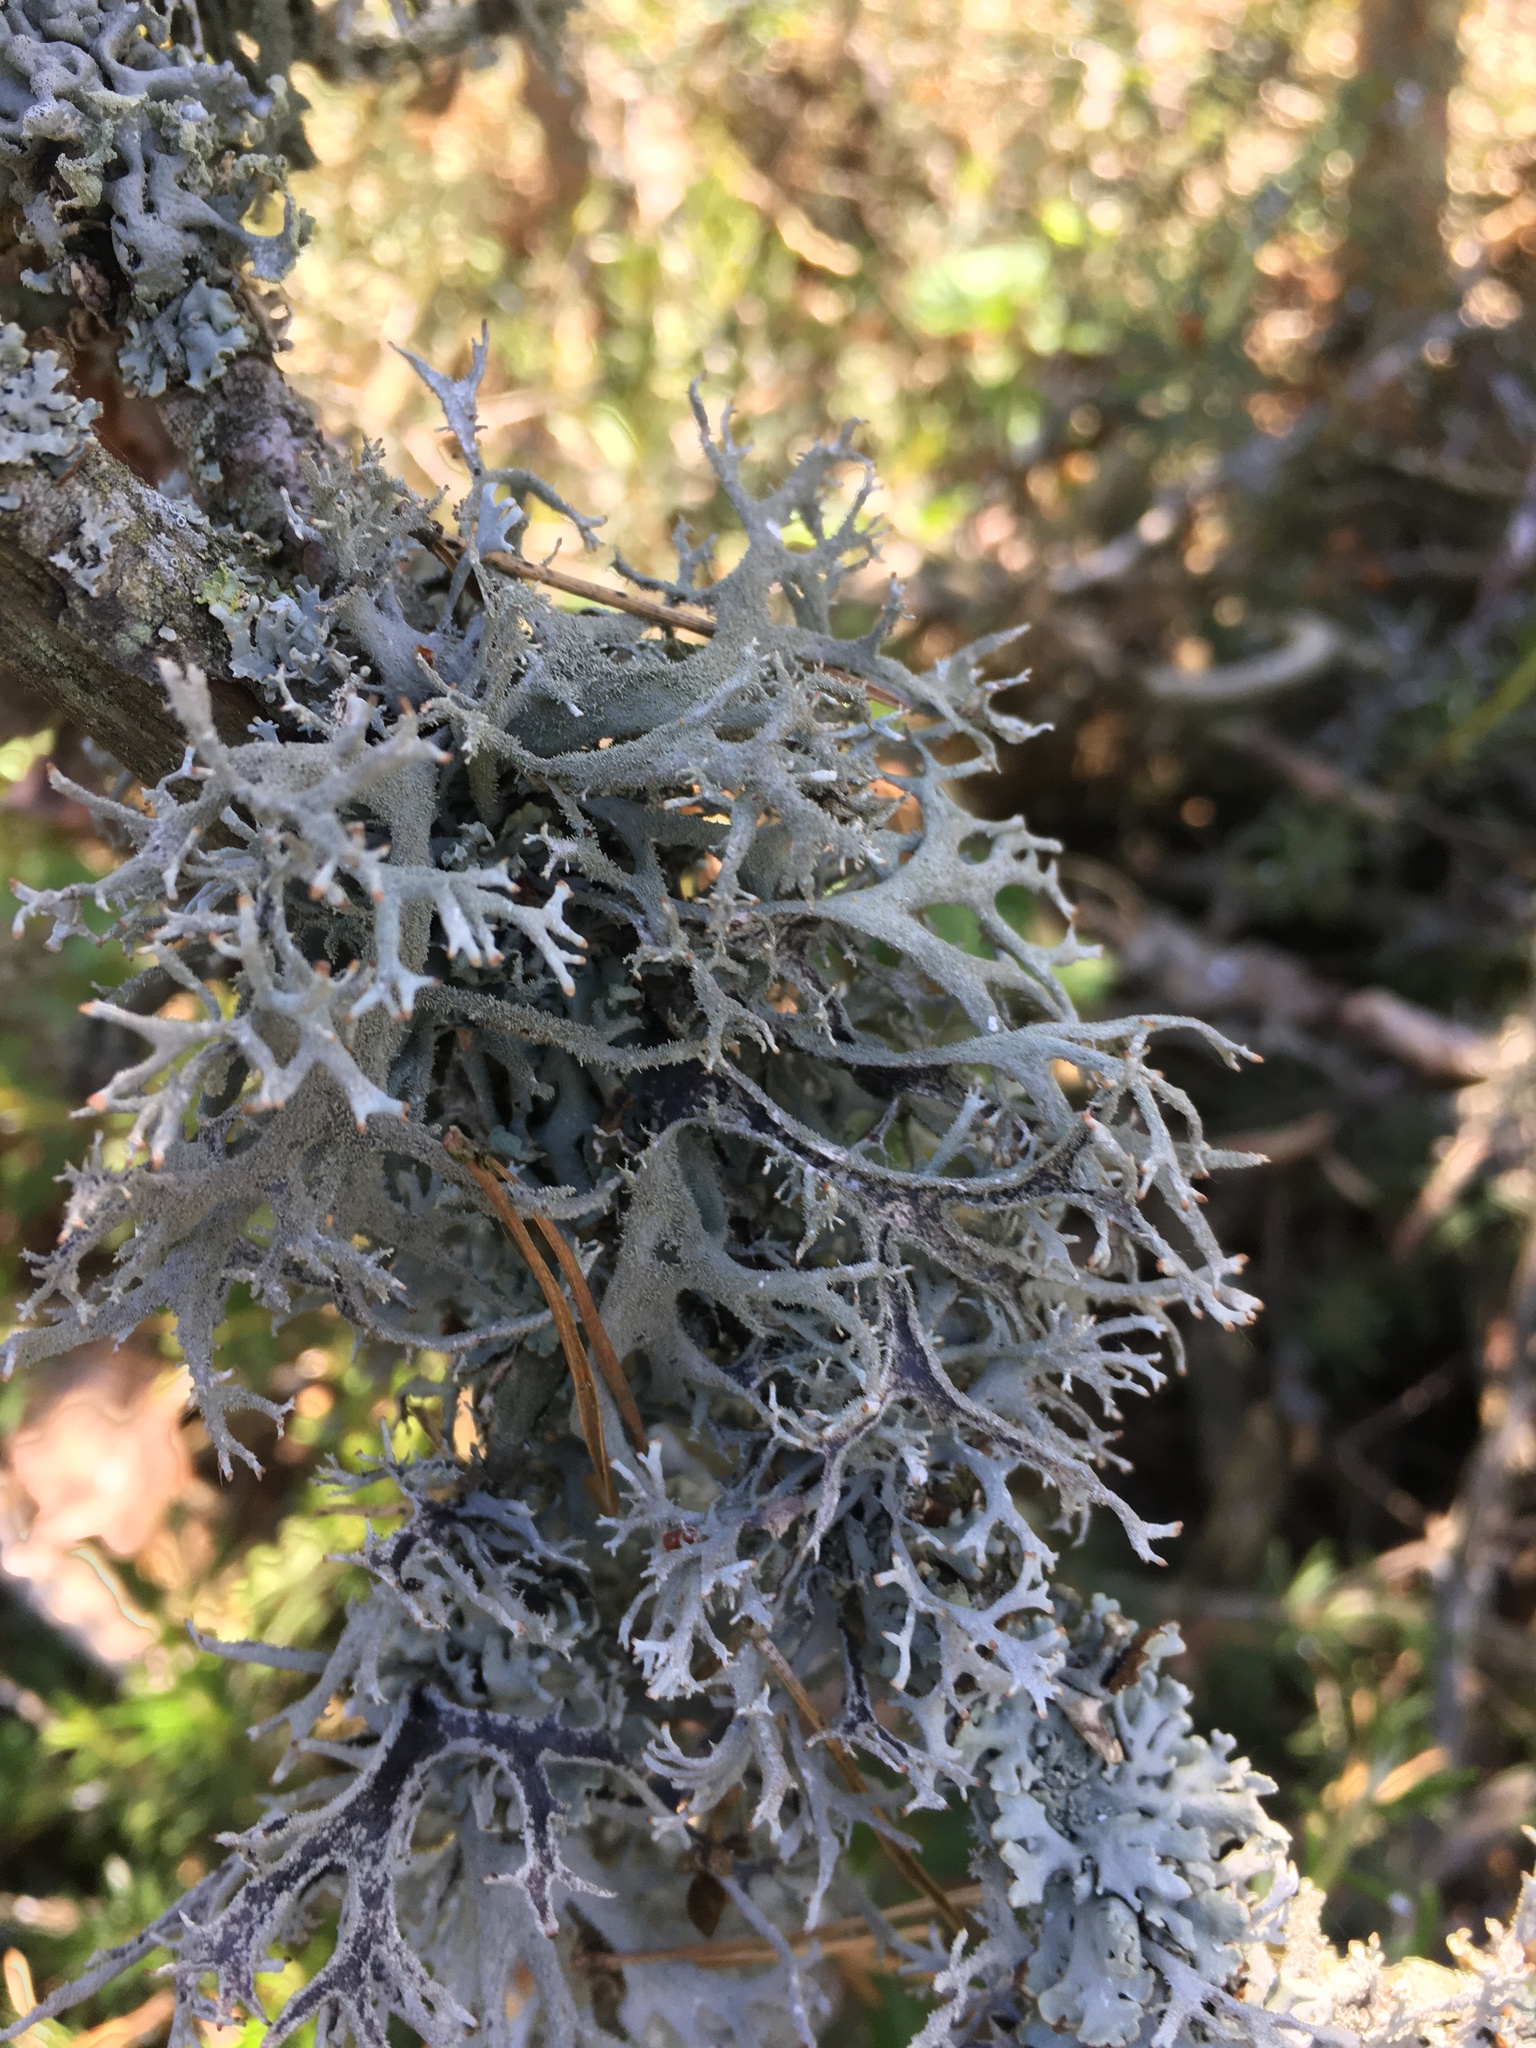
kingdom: Fungi
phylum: Ascomycota
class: Lecanoromycetes
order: Lecanorales
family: Parmeliaceae
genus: Pseudevernia
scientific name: Pseudevernia furfuracea
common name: Tree moss
